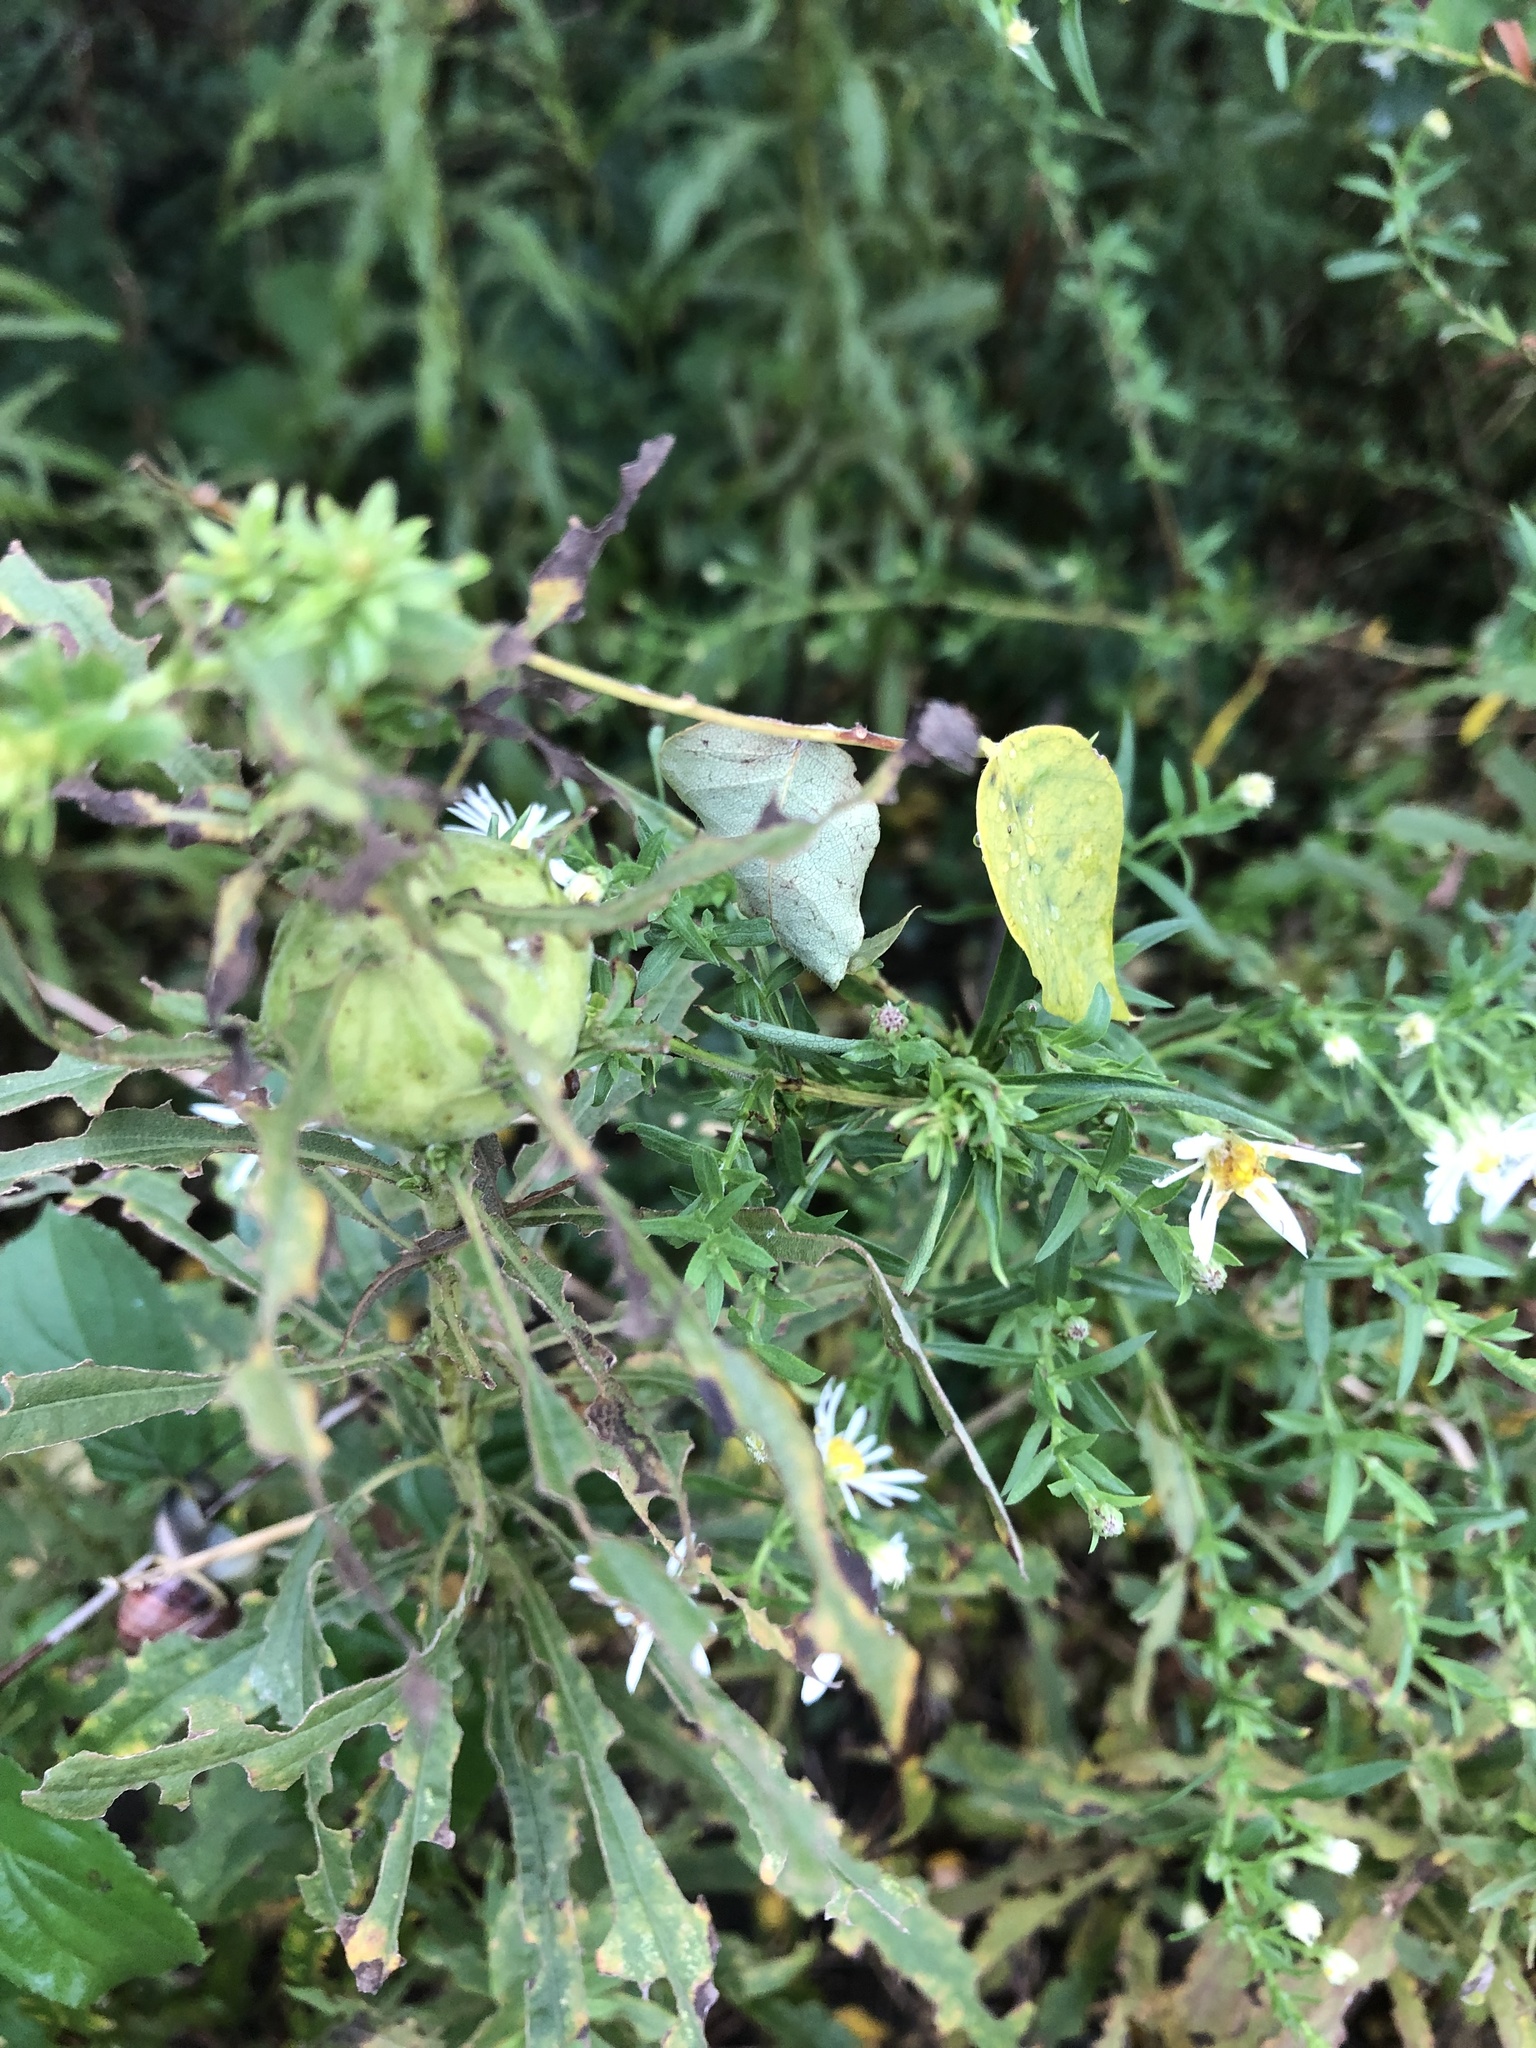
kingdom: Animalia
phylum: Arthropoda
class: Insecta
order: Diptera
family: Tephritidae
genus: Eurosta
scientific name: Eurosta solidaginis
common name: Goldenrod gall fly
